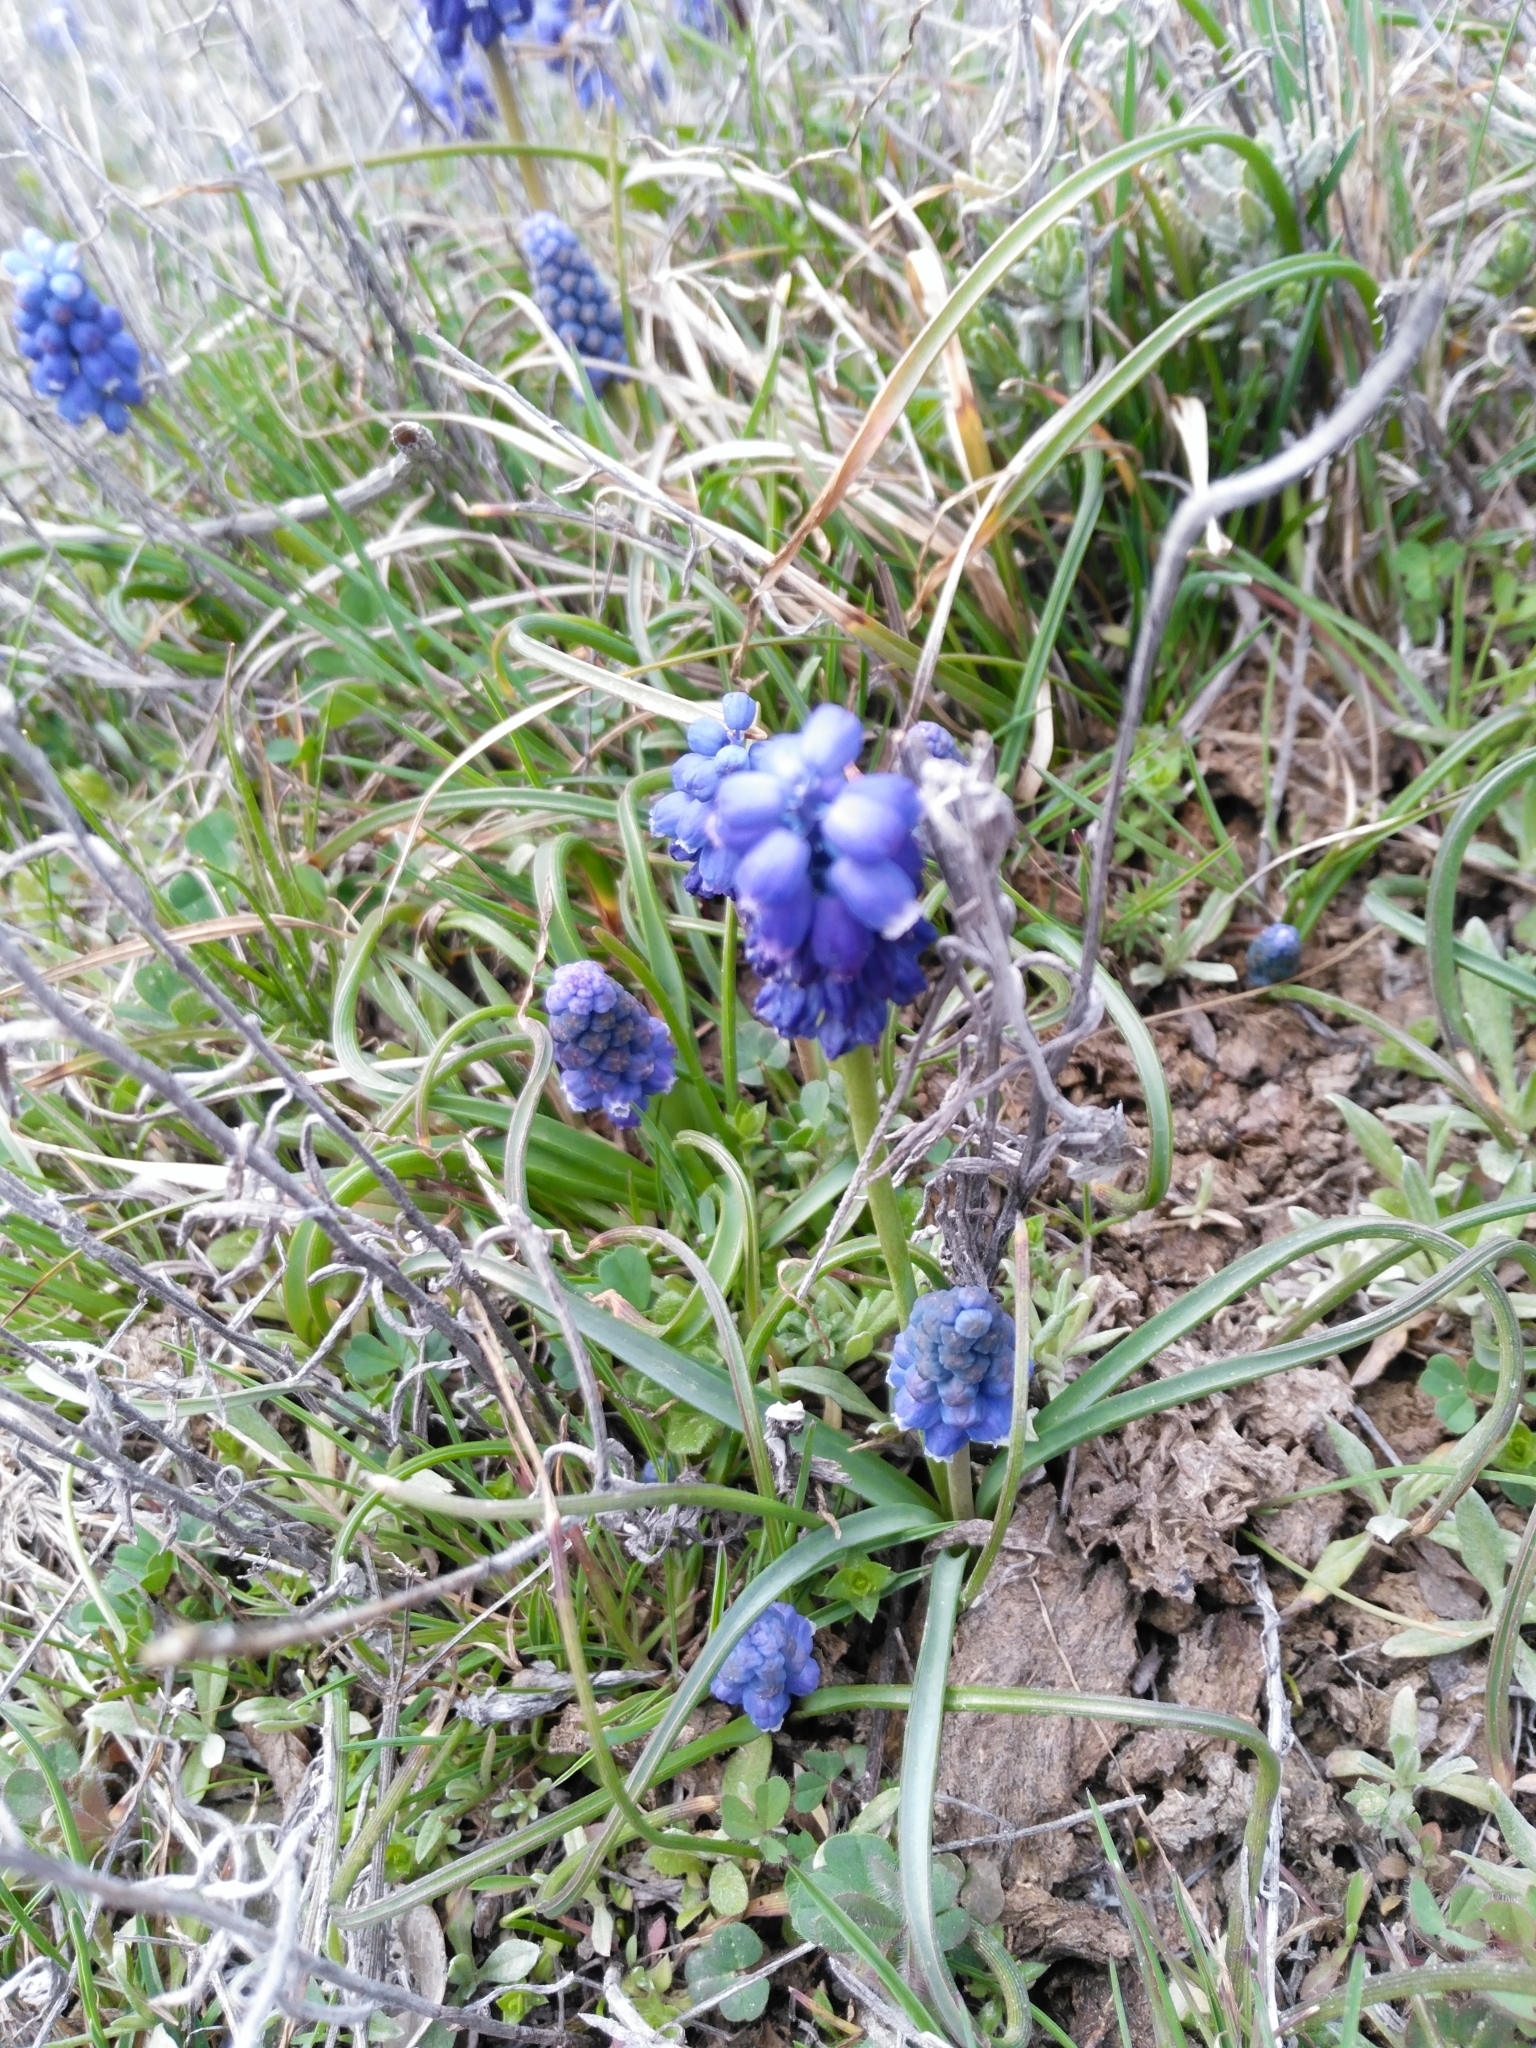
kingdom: Plantae
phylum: Tracheophyta
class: Liliopsida
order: Asparagales
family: Asparagaceae
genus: Muscari
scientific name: Muscari armeniacum
